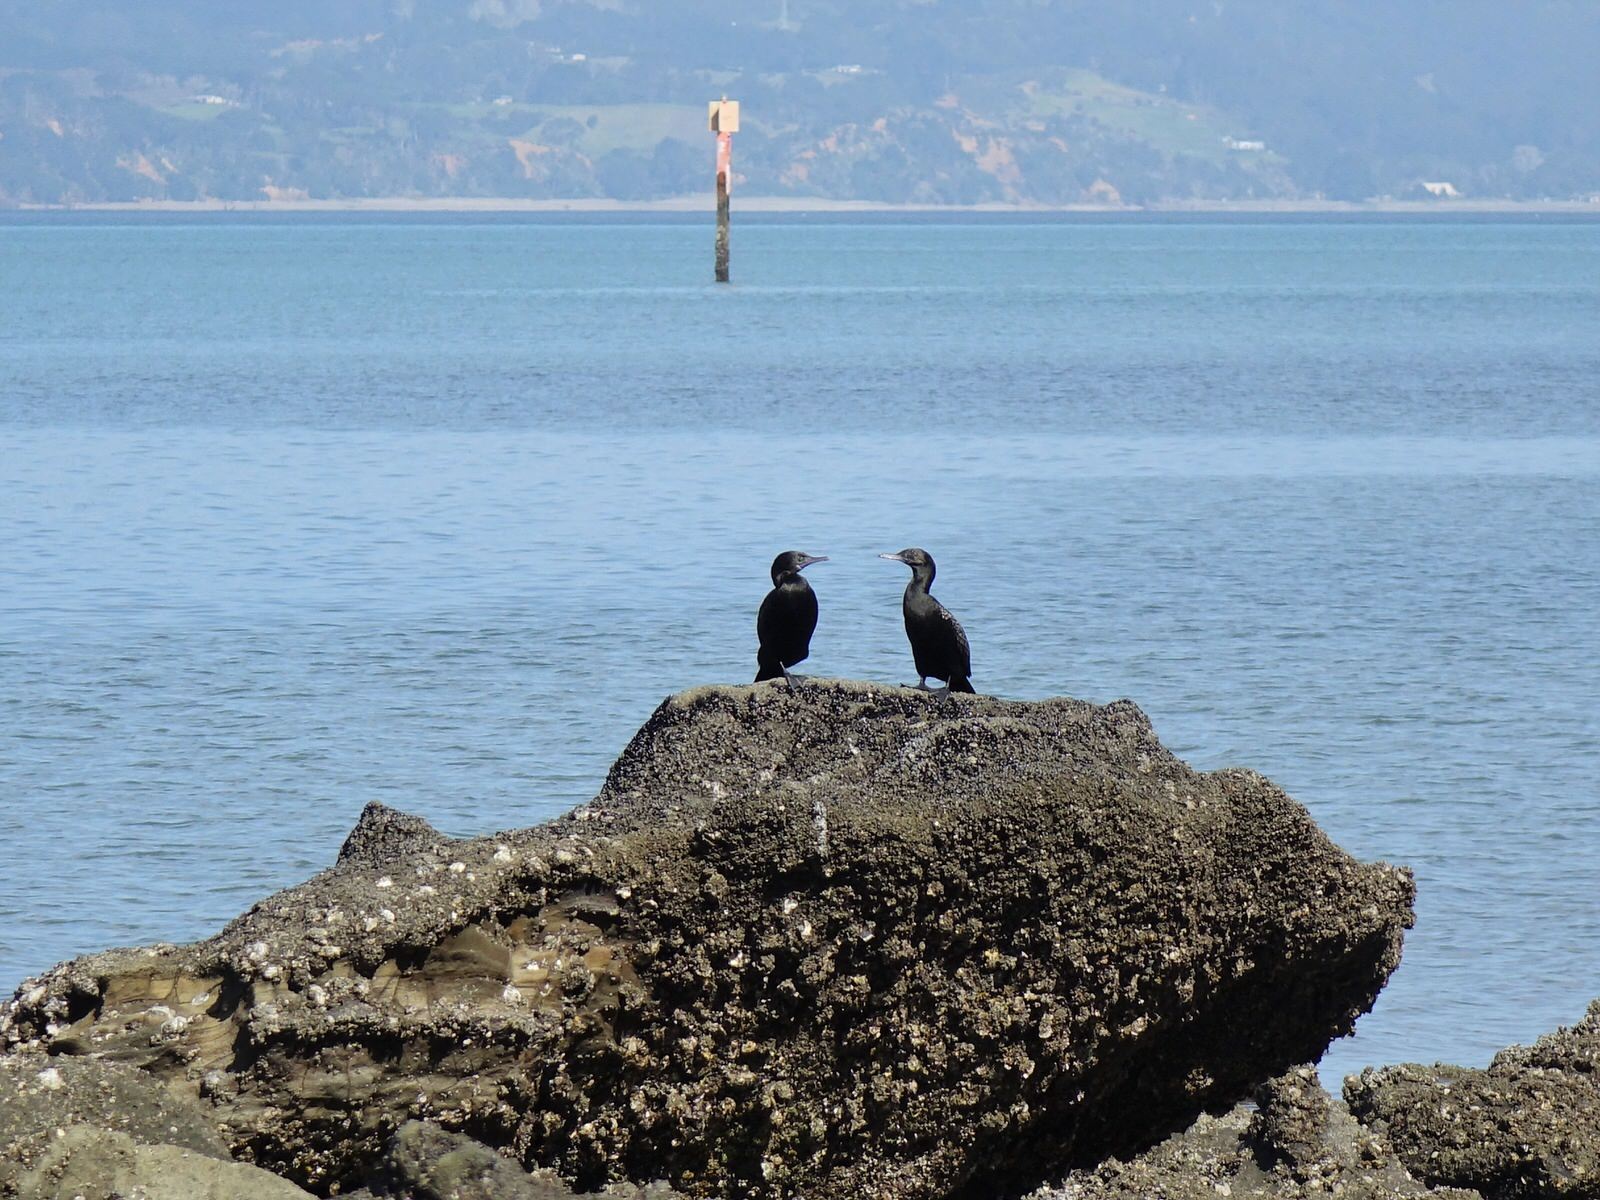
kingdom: Animalia
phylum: Chordata
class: Aves
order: Suliformes
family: Phalacrocoracidae
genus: Phalacrocorax
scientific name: Phalacrocorax sulcirostris
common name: Little black cormorant
